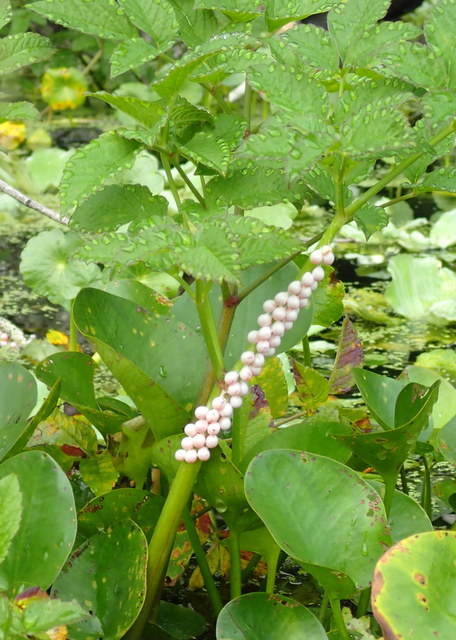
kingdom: Animalia
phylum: Mollusca
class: Gastropoda
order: Architaenioglossa
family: Ampullariidae
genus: Pomacea
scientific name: Pomacea paludosa
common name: Florida applesnail
